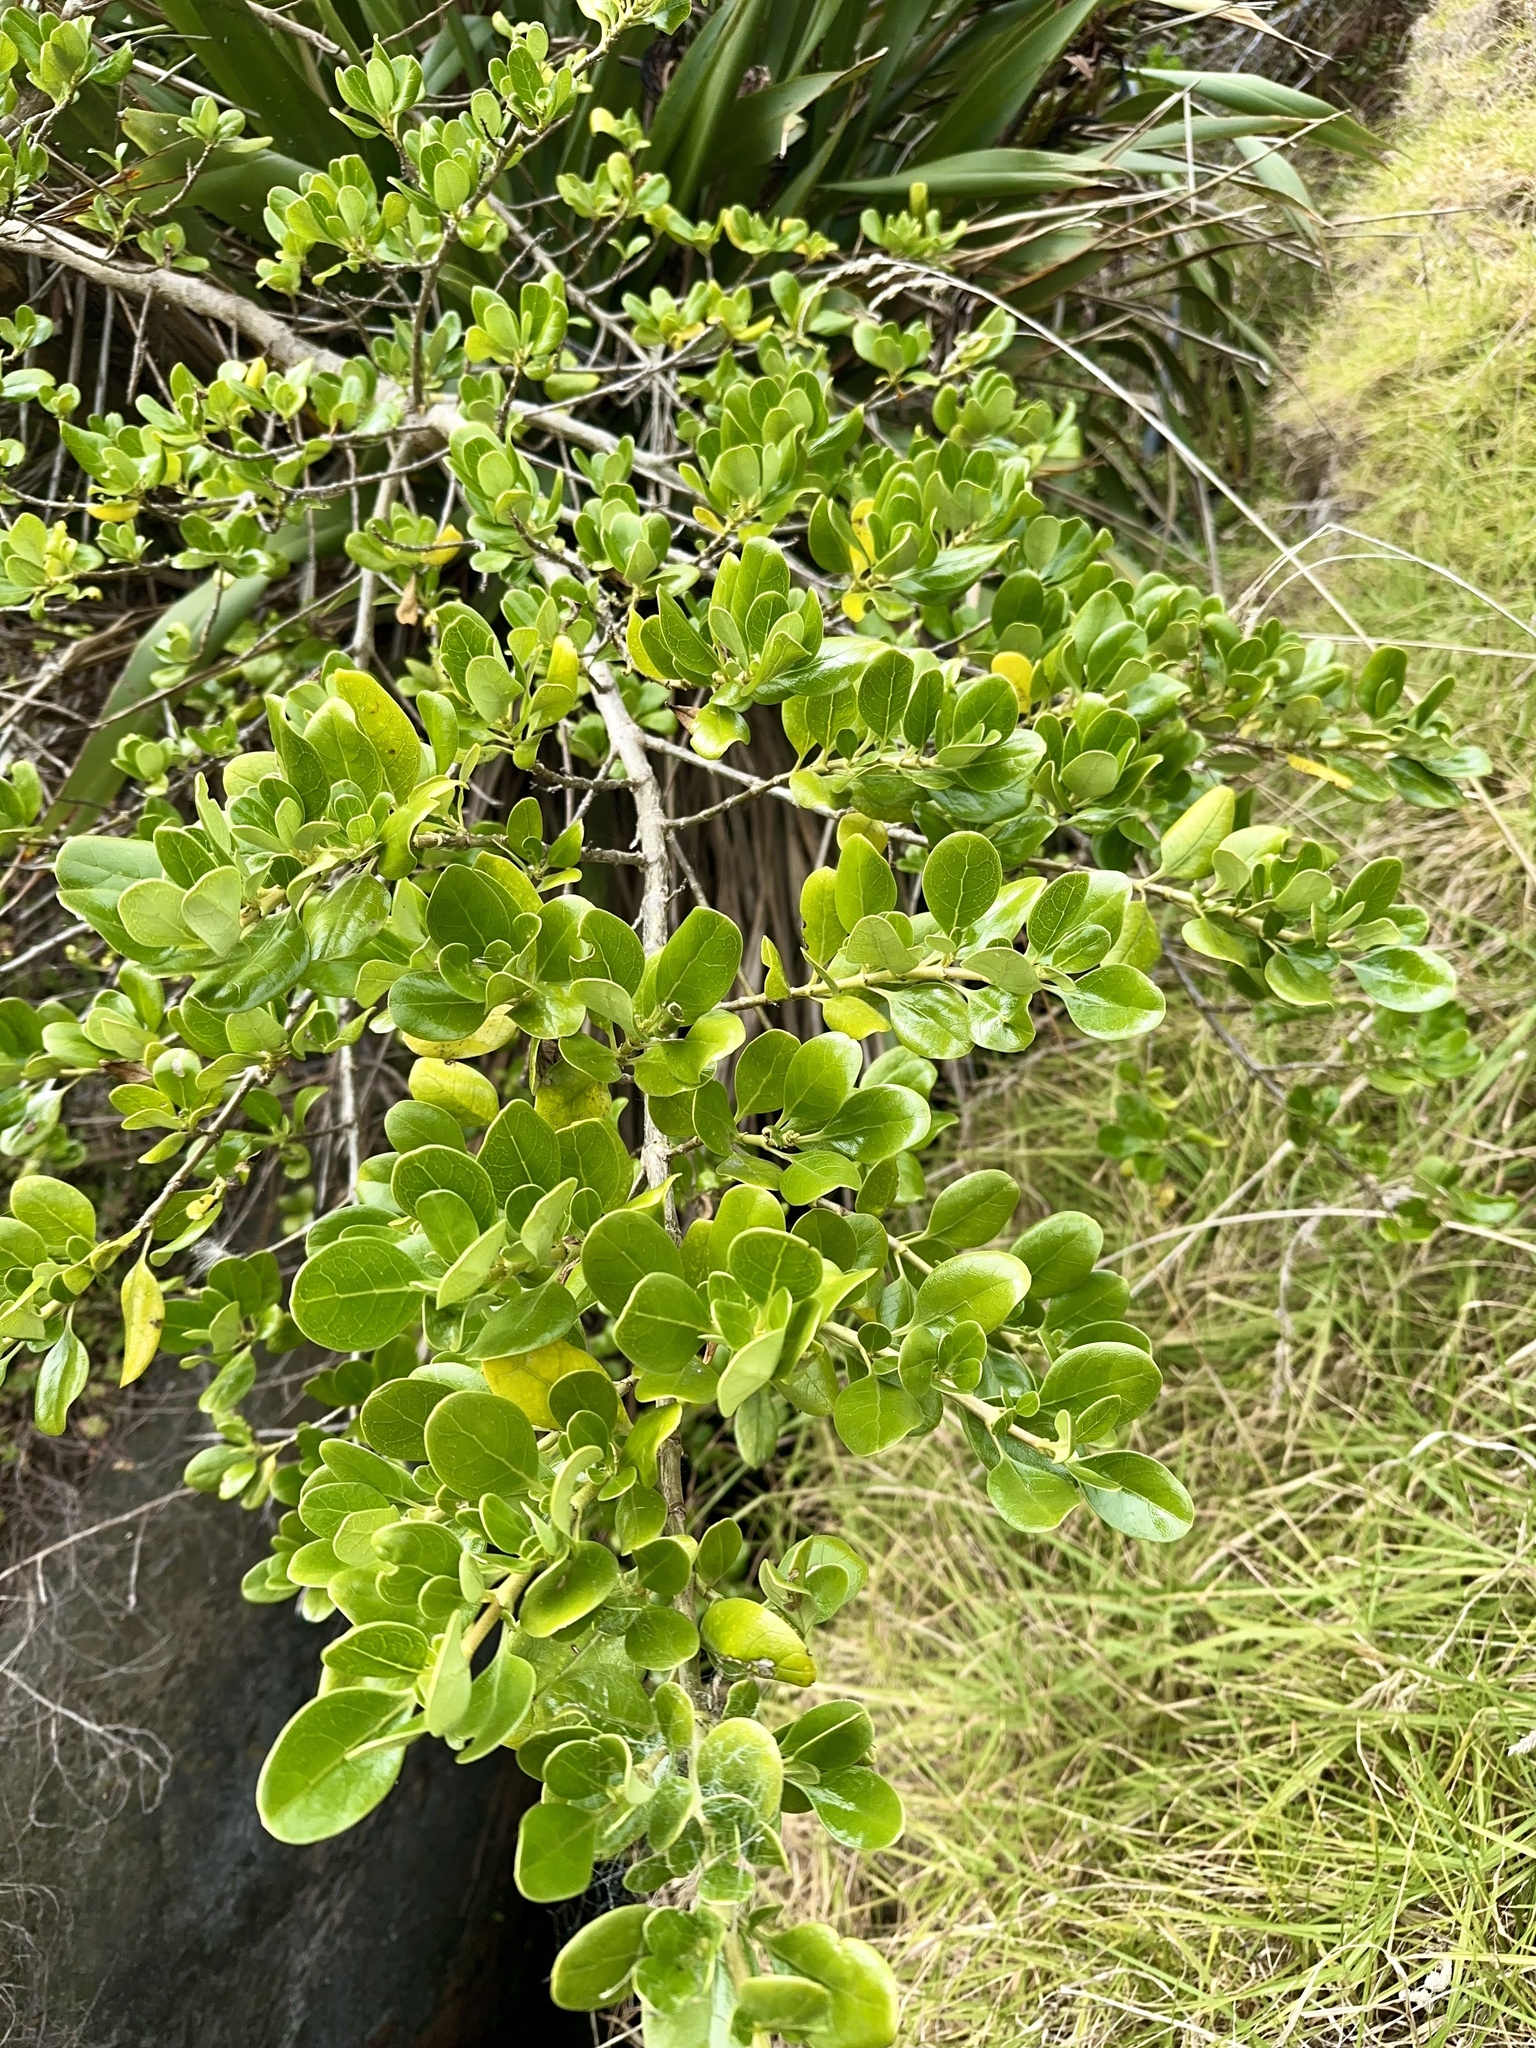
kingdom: Plantae
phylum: Tracheophyta
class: Magnoliopsida
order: Gentianales
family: Rubiaceae
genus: Coprosma
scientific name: Coprosma repens
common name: Tree bedstraw
